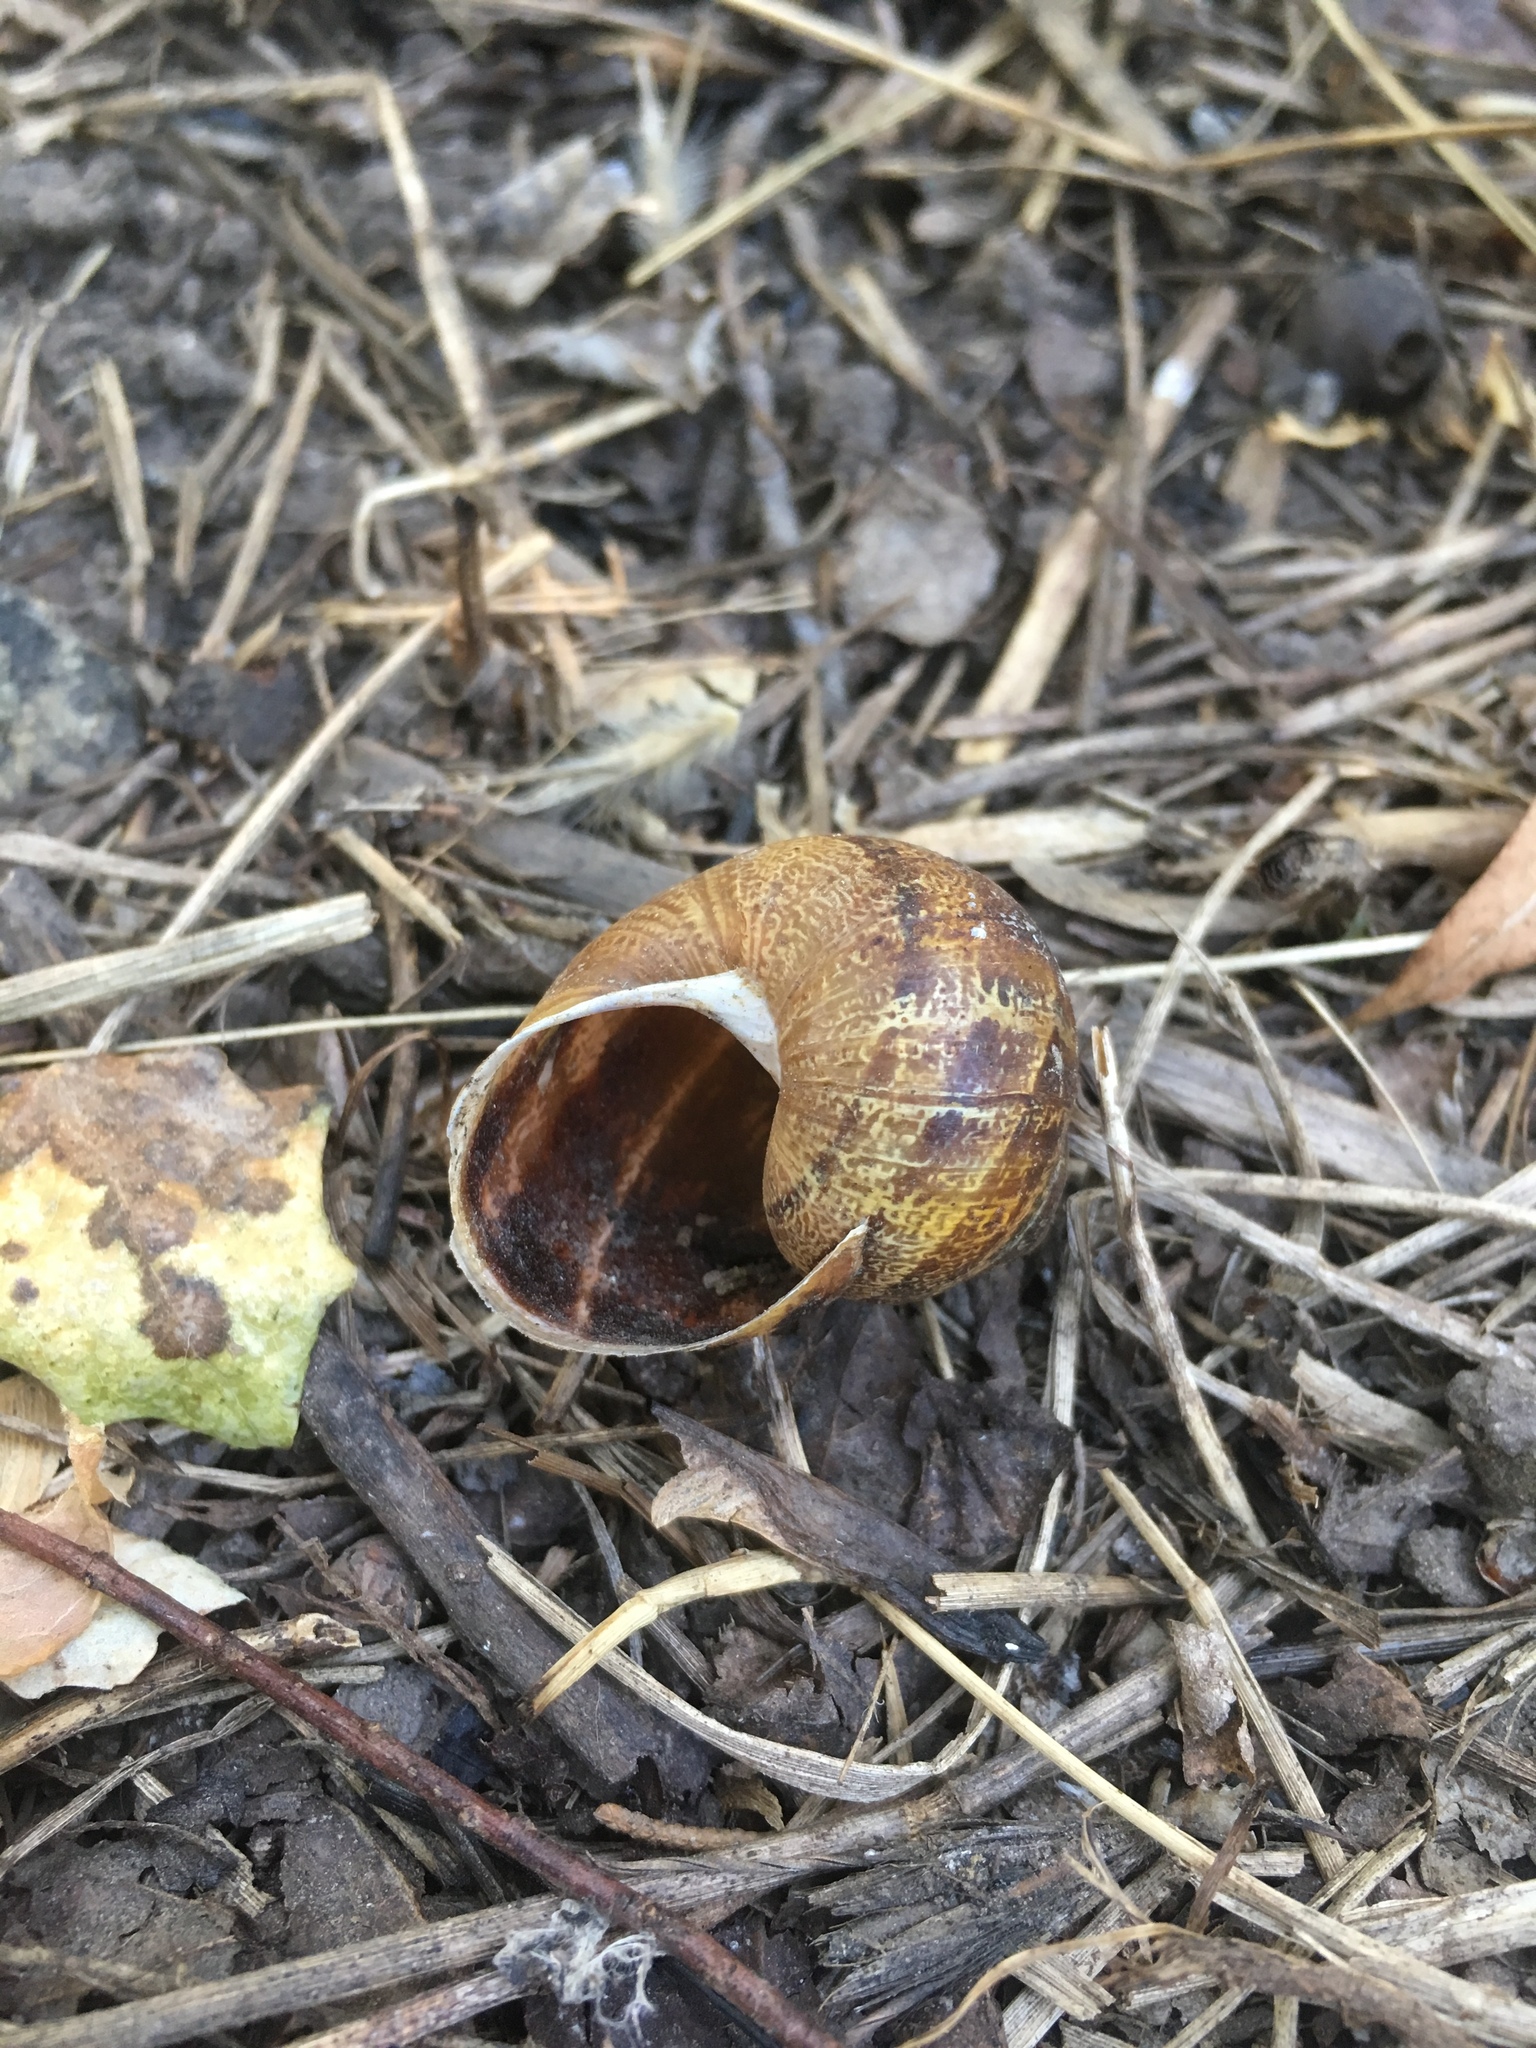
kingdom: Animalia
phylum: Mollusca
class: Gastropoda
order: Stylommatophora
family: Helicidae
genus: Cornu
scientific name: Cornu aspersum
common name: Brown garden snail
